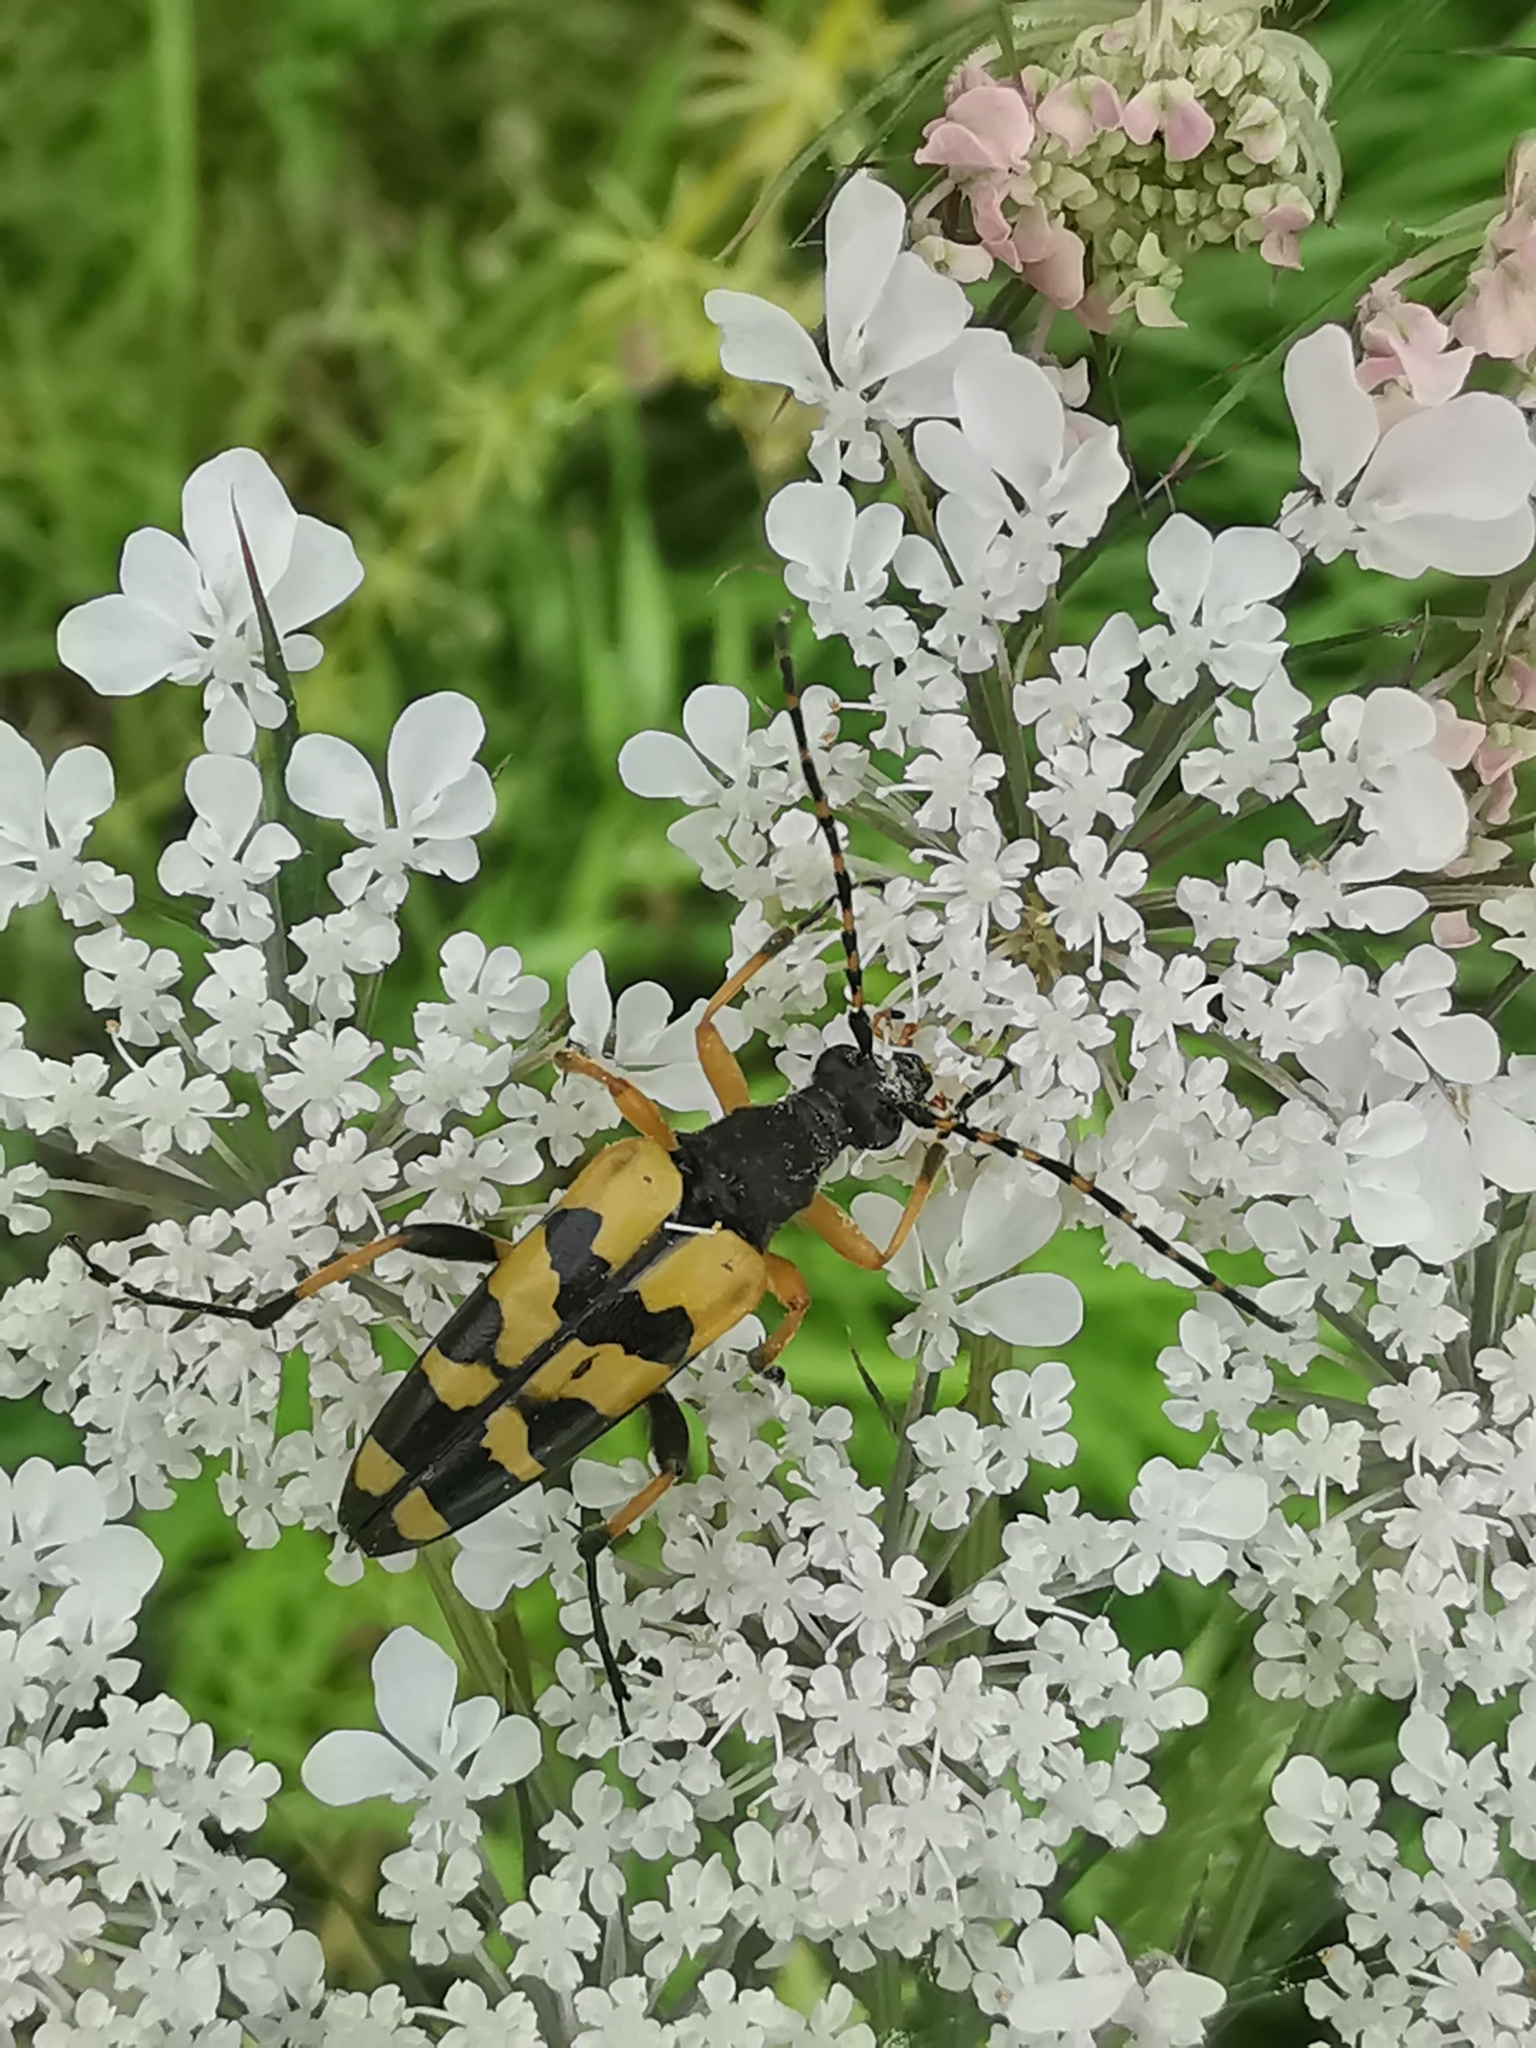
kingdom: Animalia
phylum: Arthropoda
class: Insecta
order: Coleoptera
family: Cerambycidae
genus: Rutpela
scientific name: Rutpela maculata
